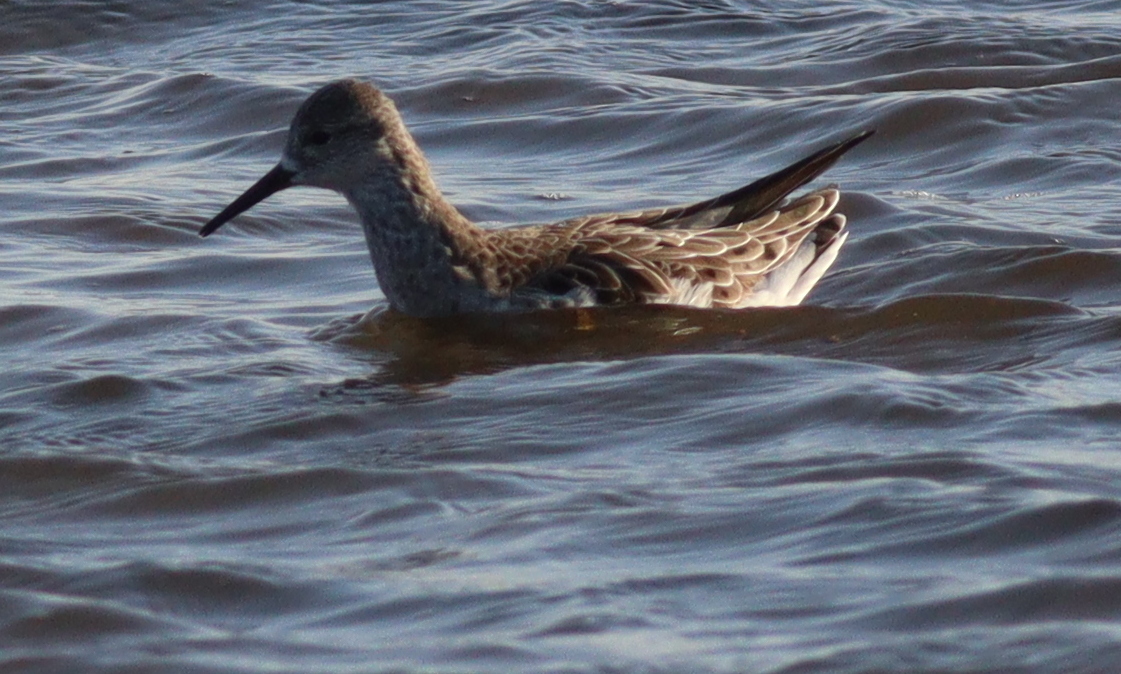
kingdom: Animalia
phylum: Chordata
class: Aves
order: Charadriiformes
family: Scolopacidae
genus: Calidris
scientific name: Calidris pugnax
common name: Ruff
